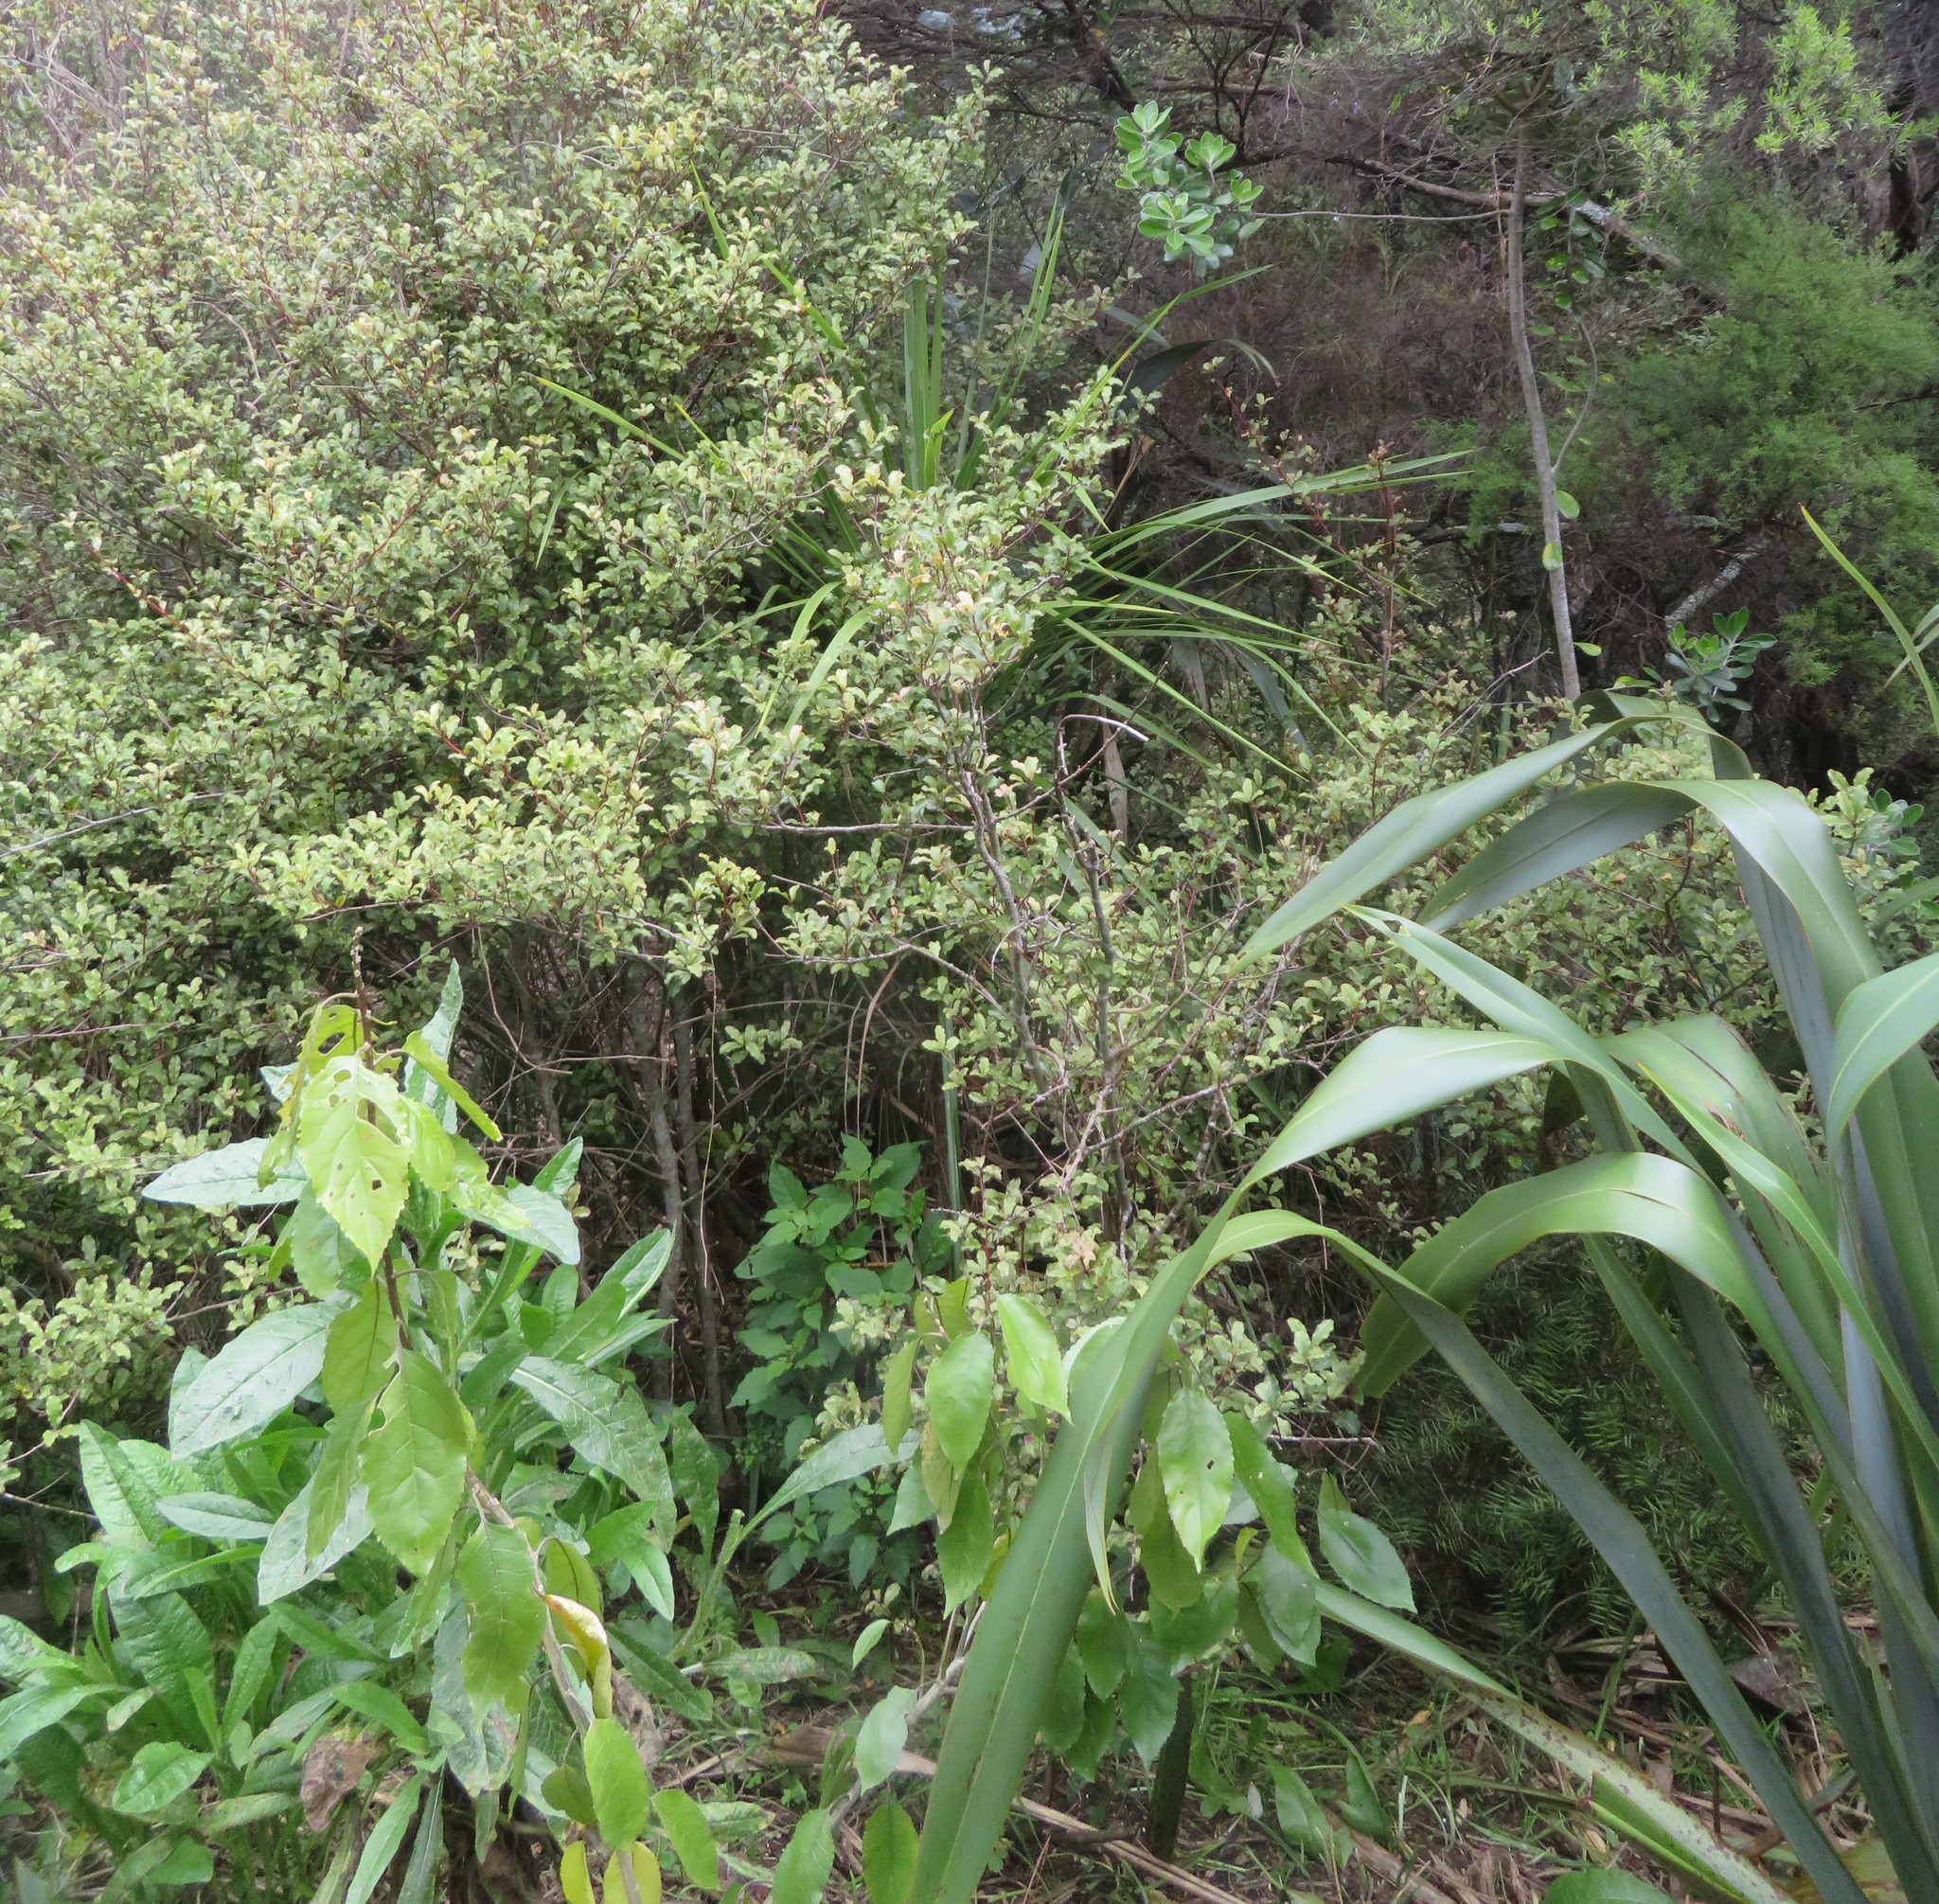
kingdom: Plantae
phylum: Tracheophyta
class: Liliopsida
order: Asparagales
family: Asparagaceae
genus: Cordyline
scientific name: Cordyline australis
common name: Cabbage-palm
